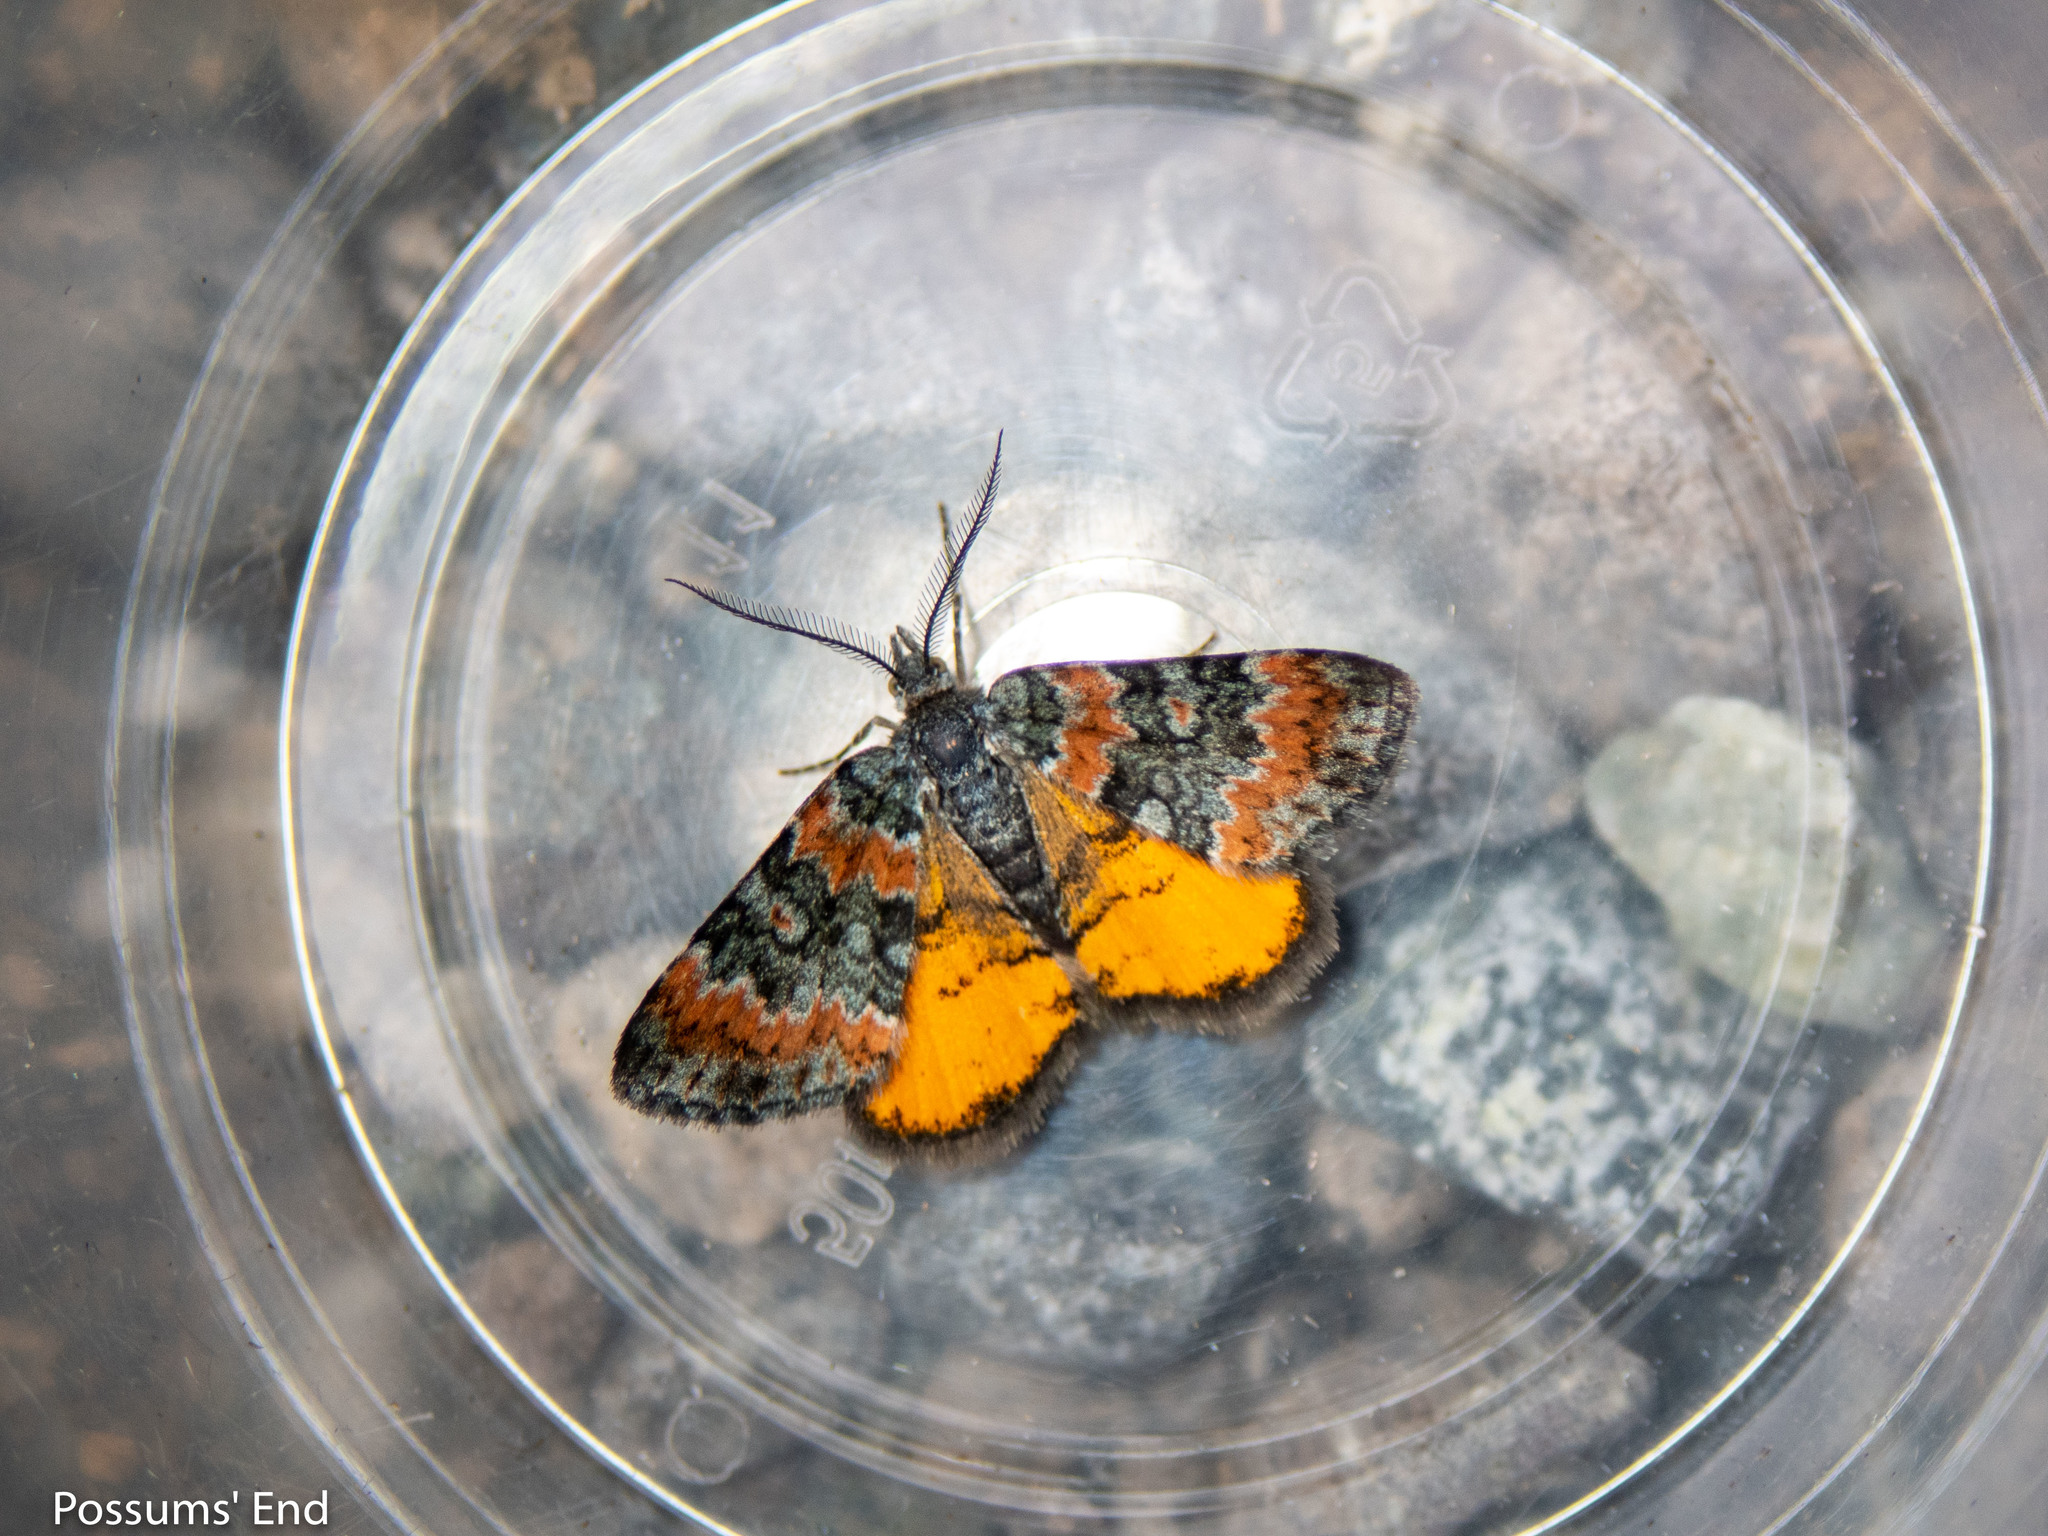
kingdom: Animalia
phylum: Arthropoda
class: Insecta
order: Lepidoptera
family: Geometridae
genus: Paranotoreas
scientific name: Paranotoreas zopyra
